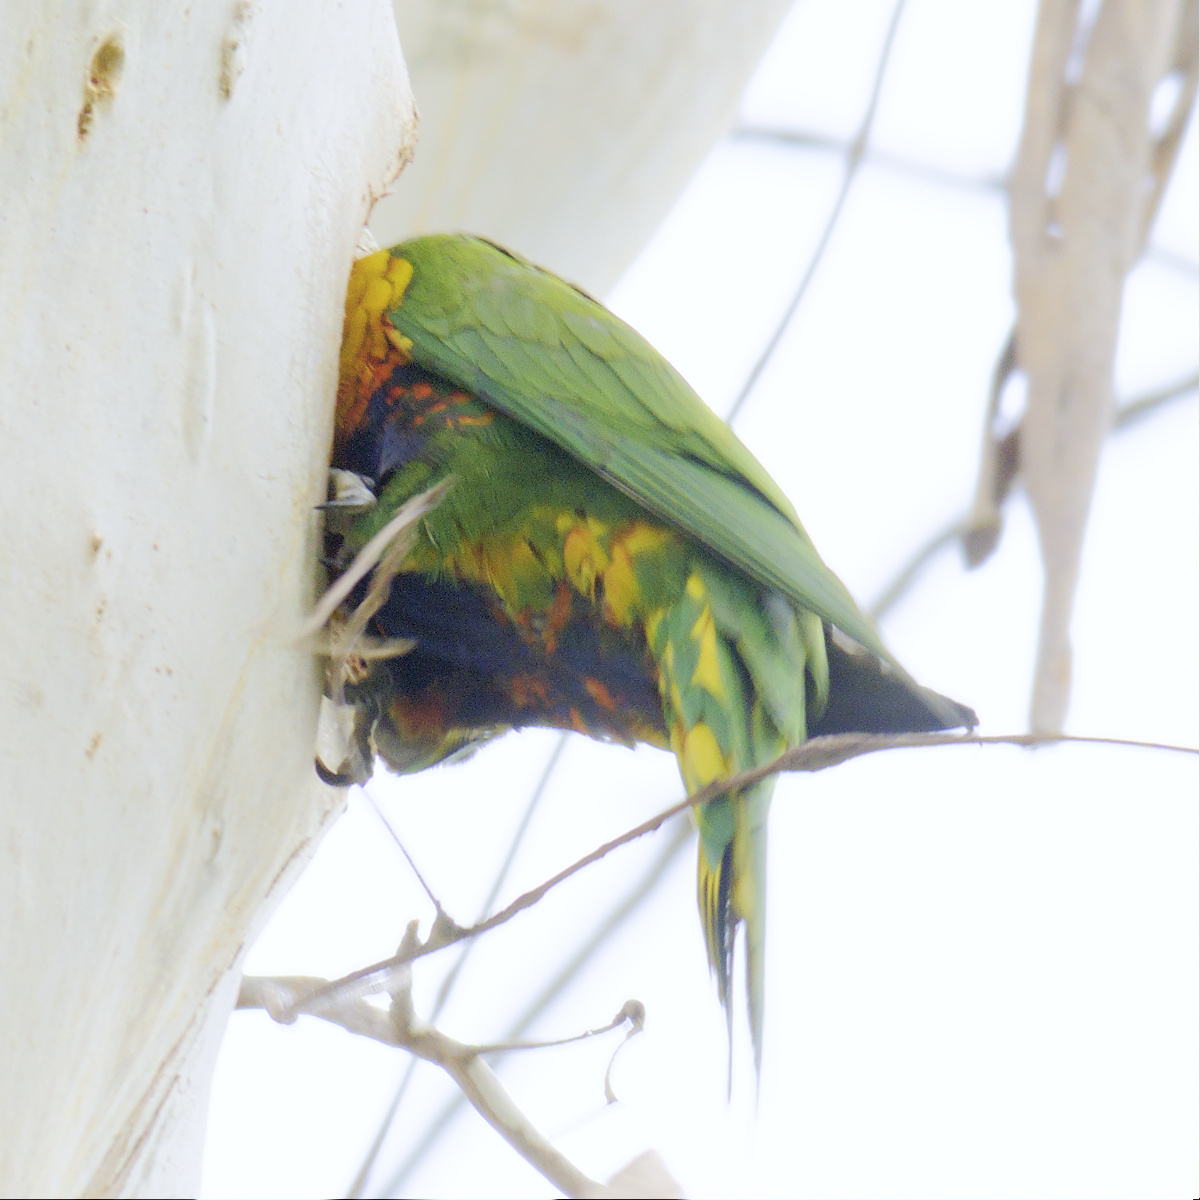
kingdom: Animalia
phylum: Chordata
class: Aves
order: Psittaciformes
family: Psittacidae
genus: Trichoglossus
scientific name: Trichoglossus haematodus
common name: Coconut lorikeet
